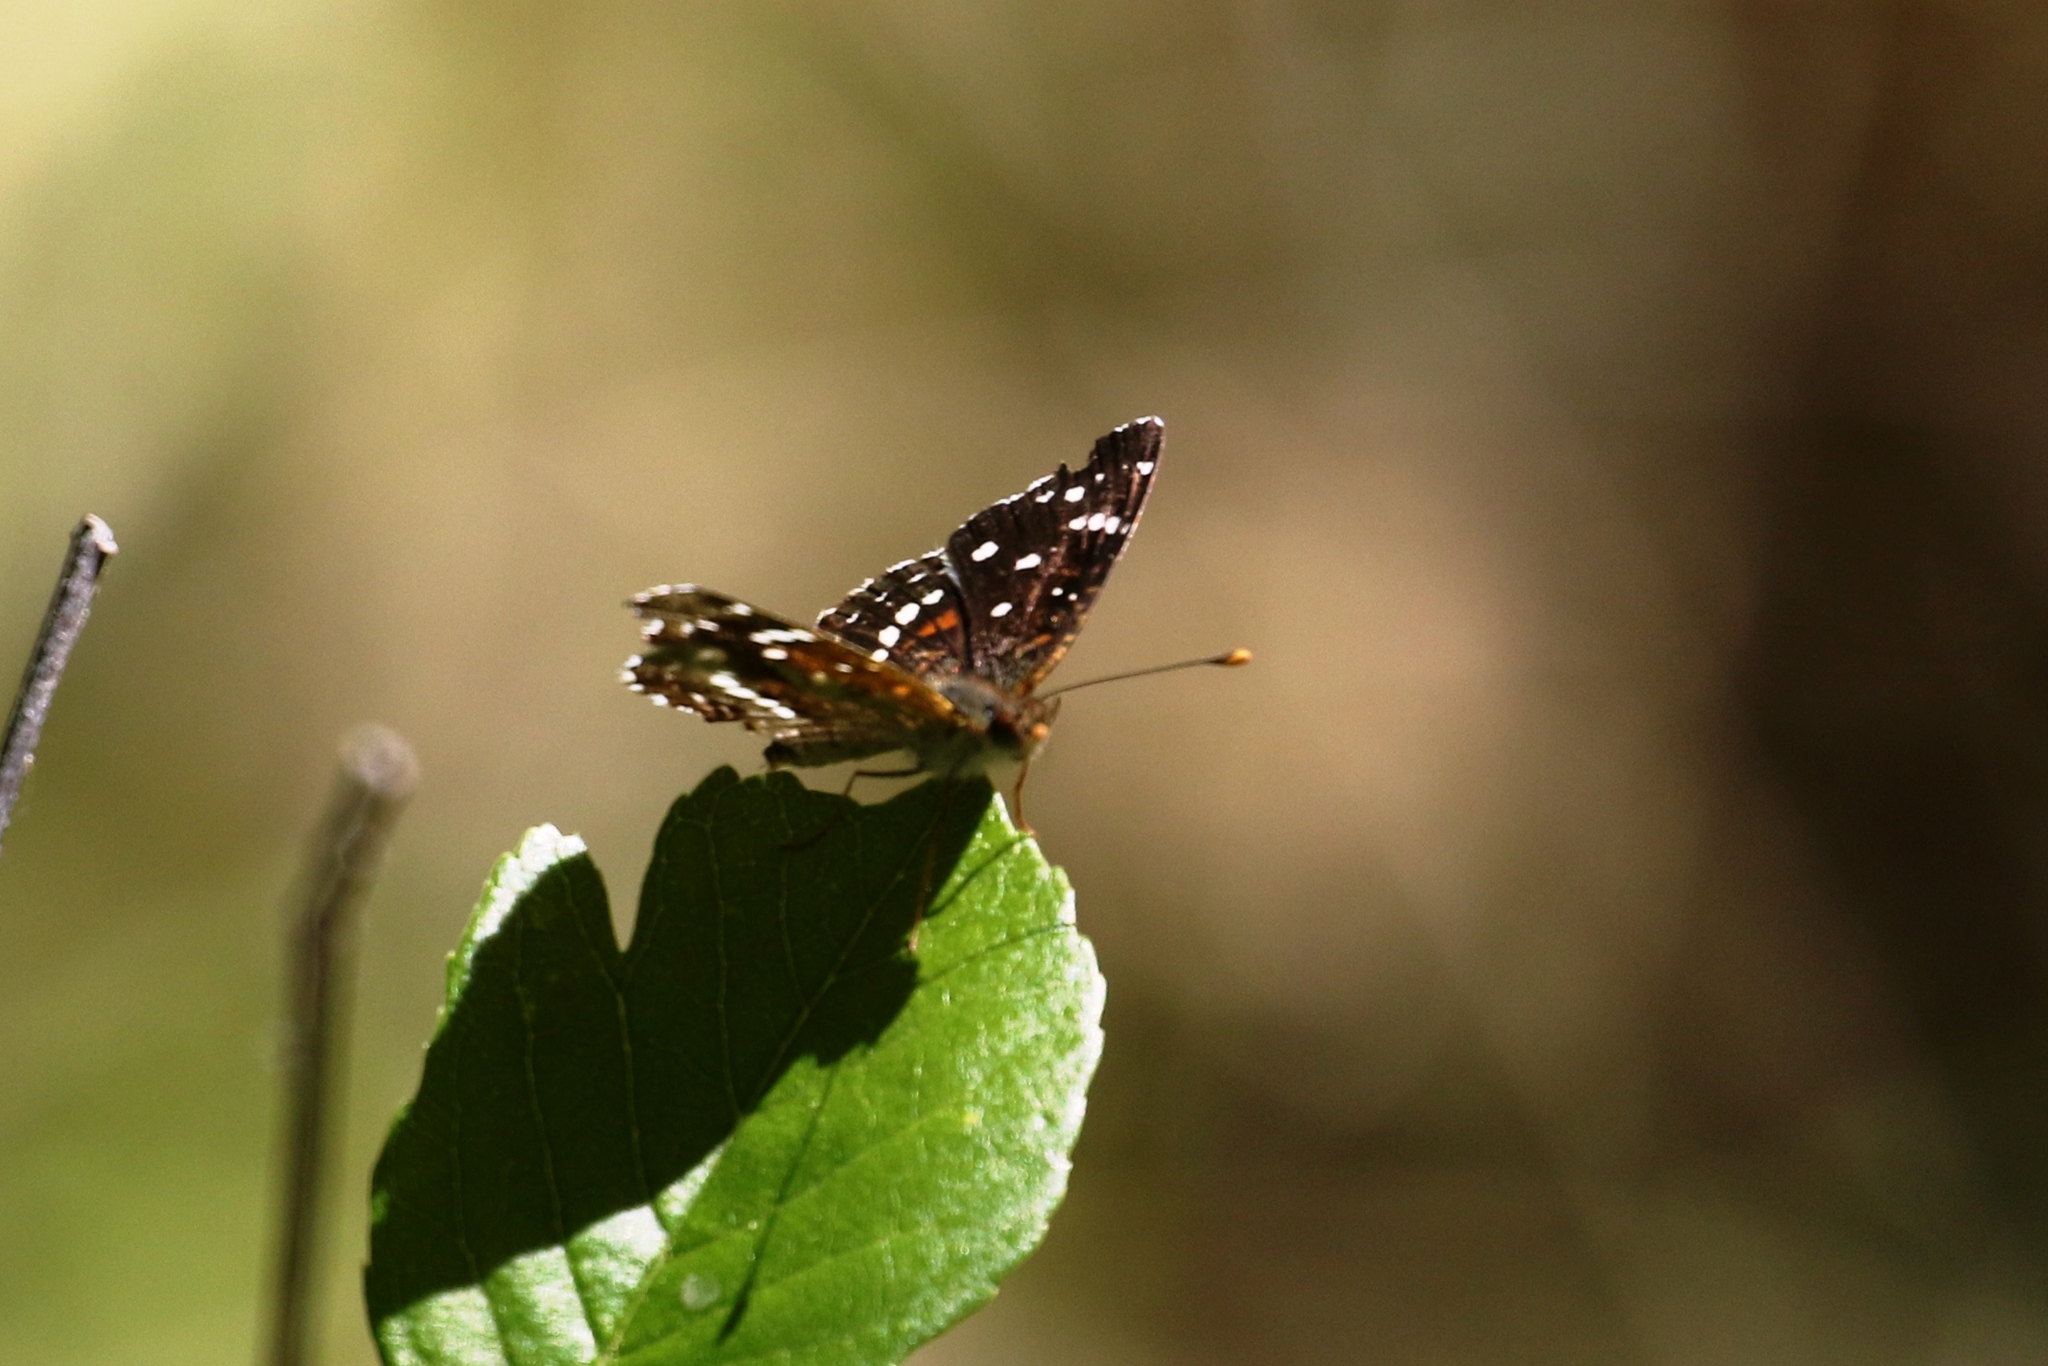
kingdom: Animalia
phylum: Arthropoda
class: Insecta
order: Lepidoptera
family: Nymphalidae
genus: Anthanassa
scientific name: Anthanassa texana
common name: Texan crescent
